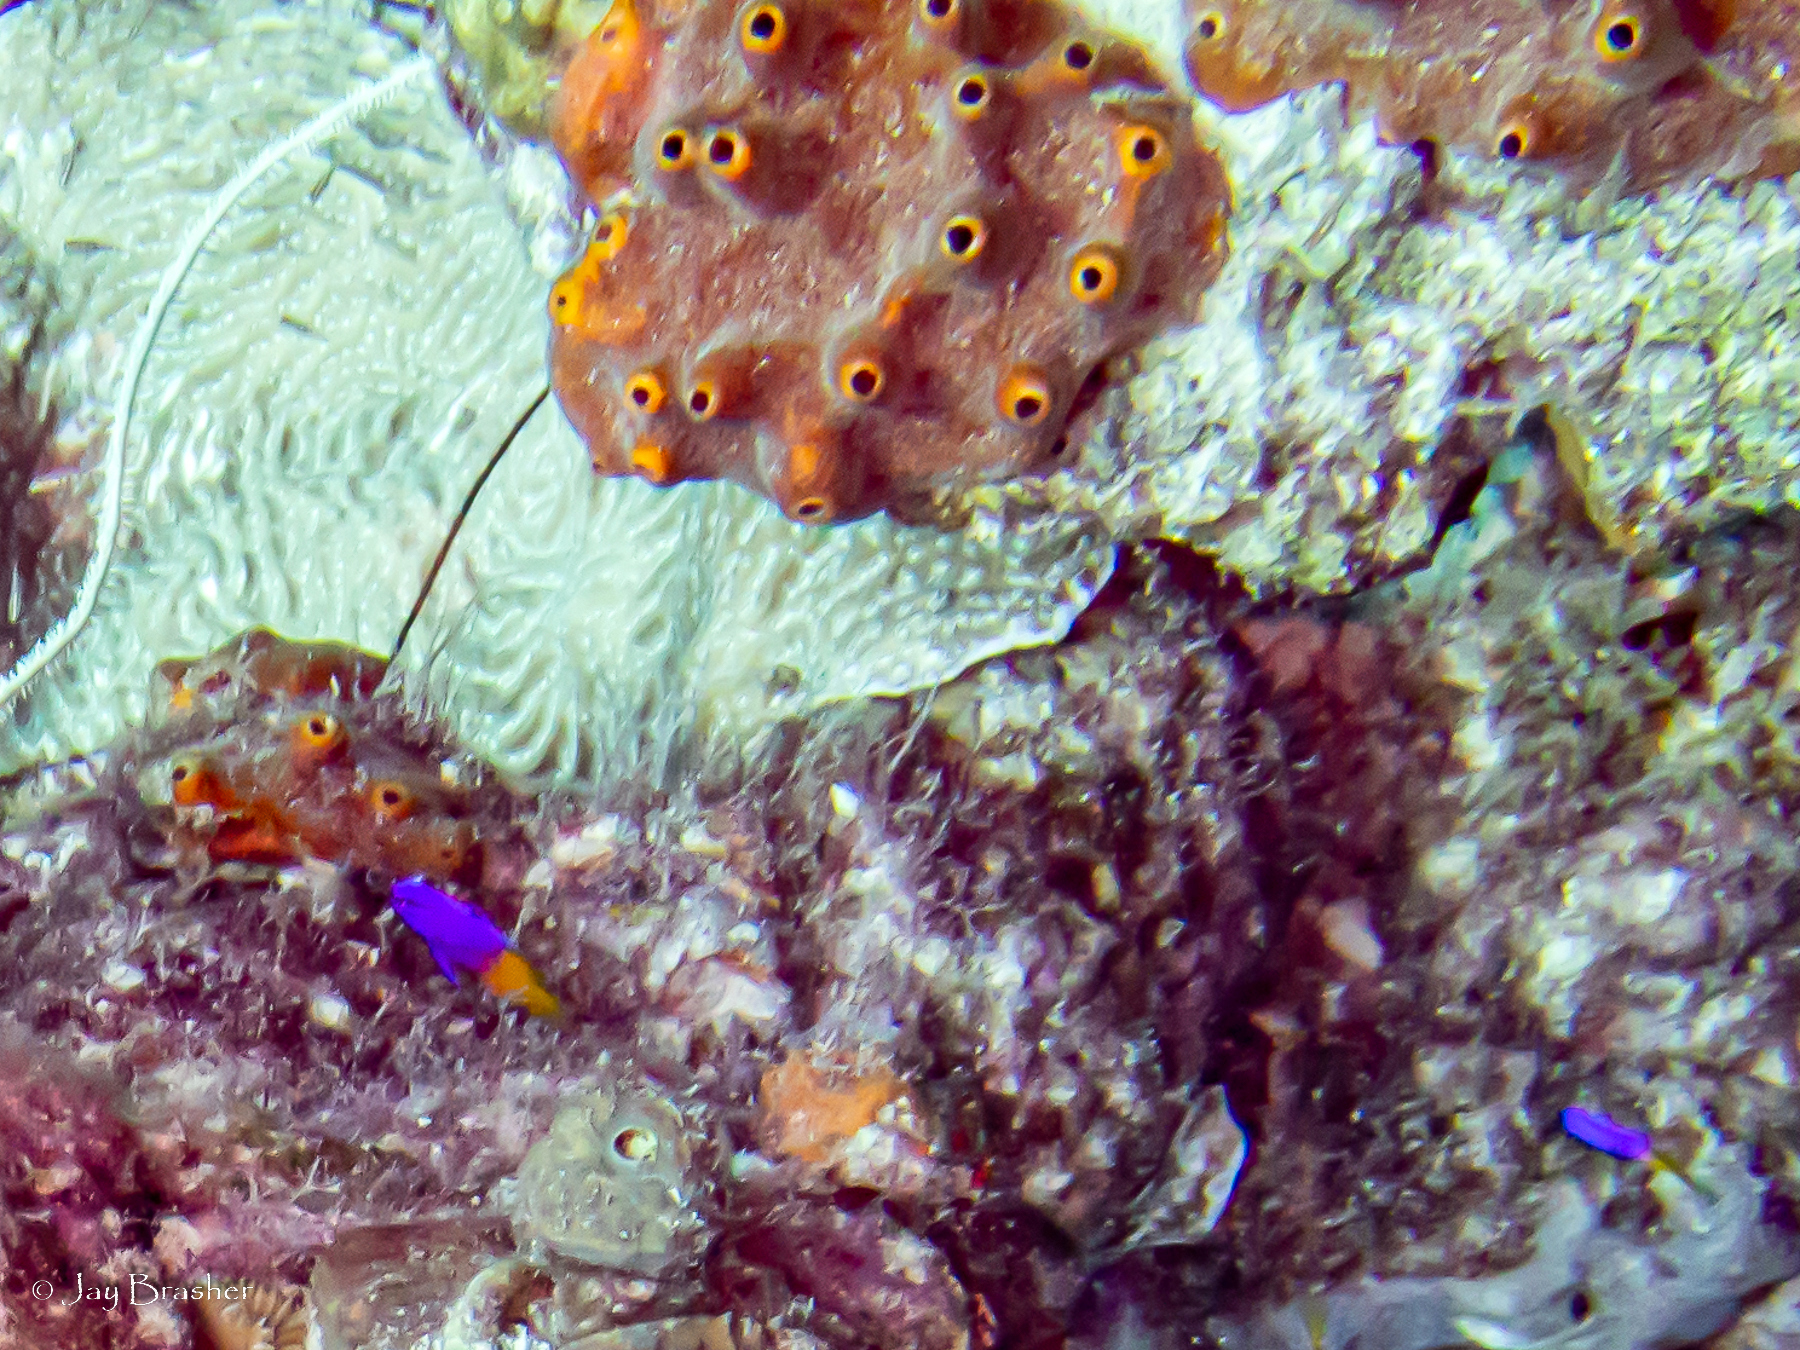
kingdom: Animalia
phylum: Chordata
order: Perciformes
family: Grammatidae
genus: Gramma
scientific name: Gramma loreto
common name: Fairy basslet
